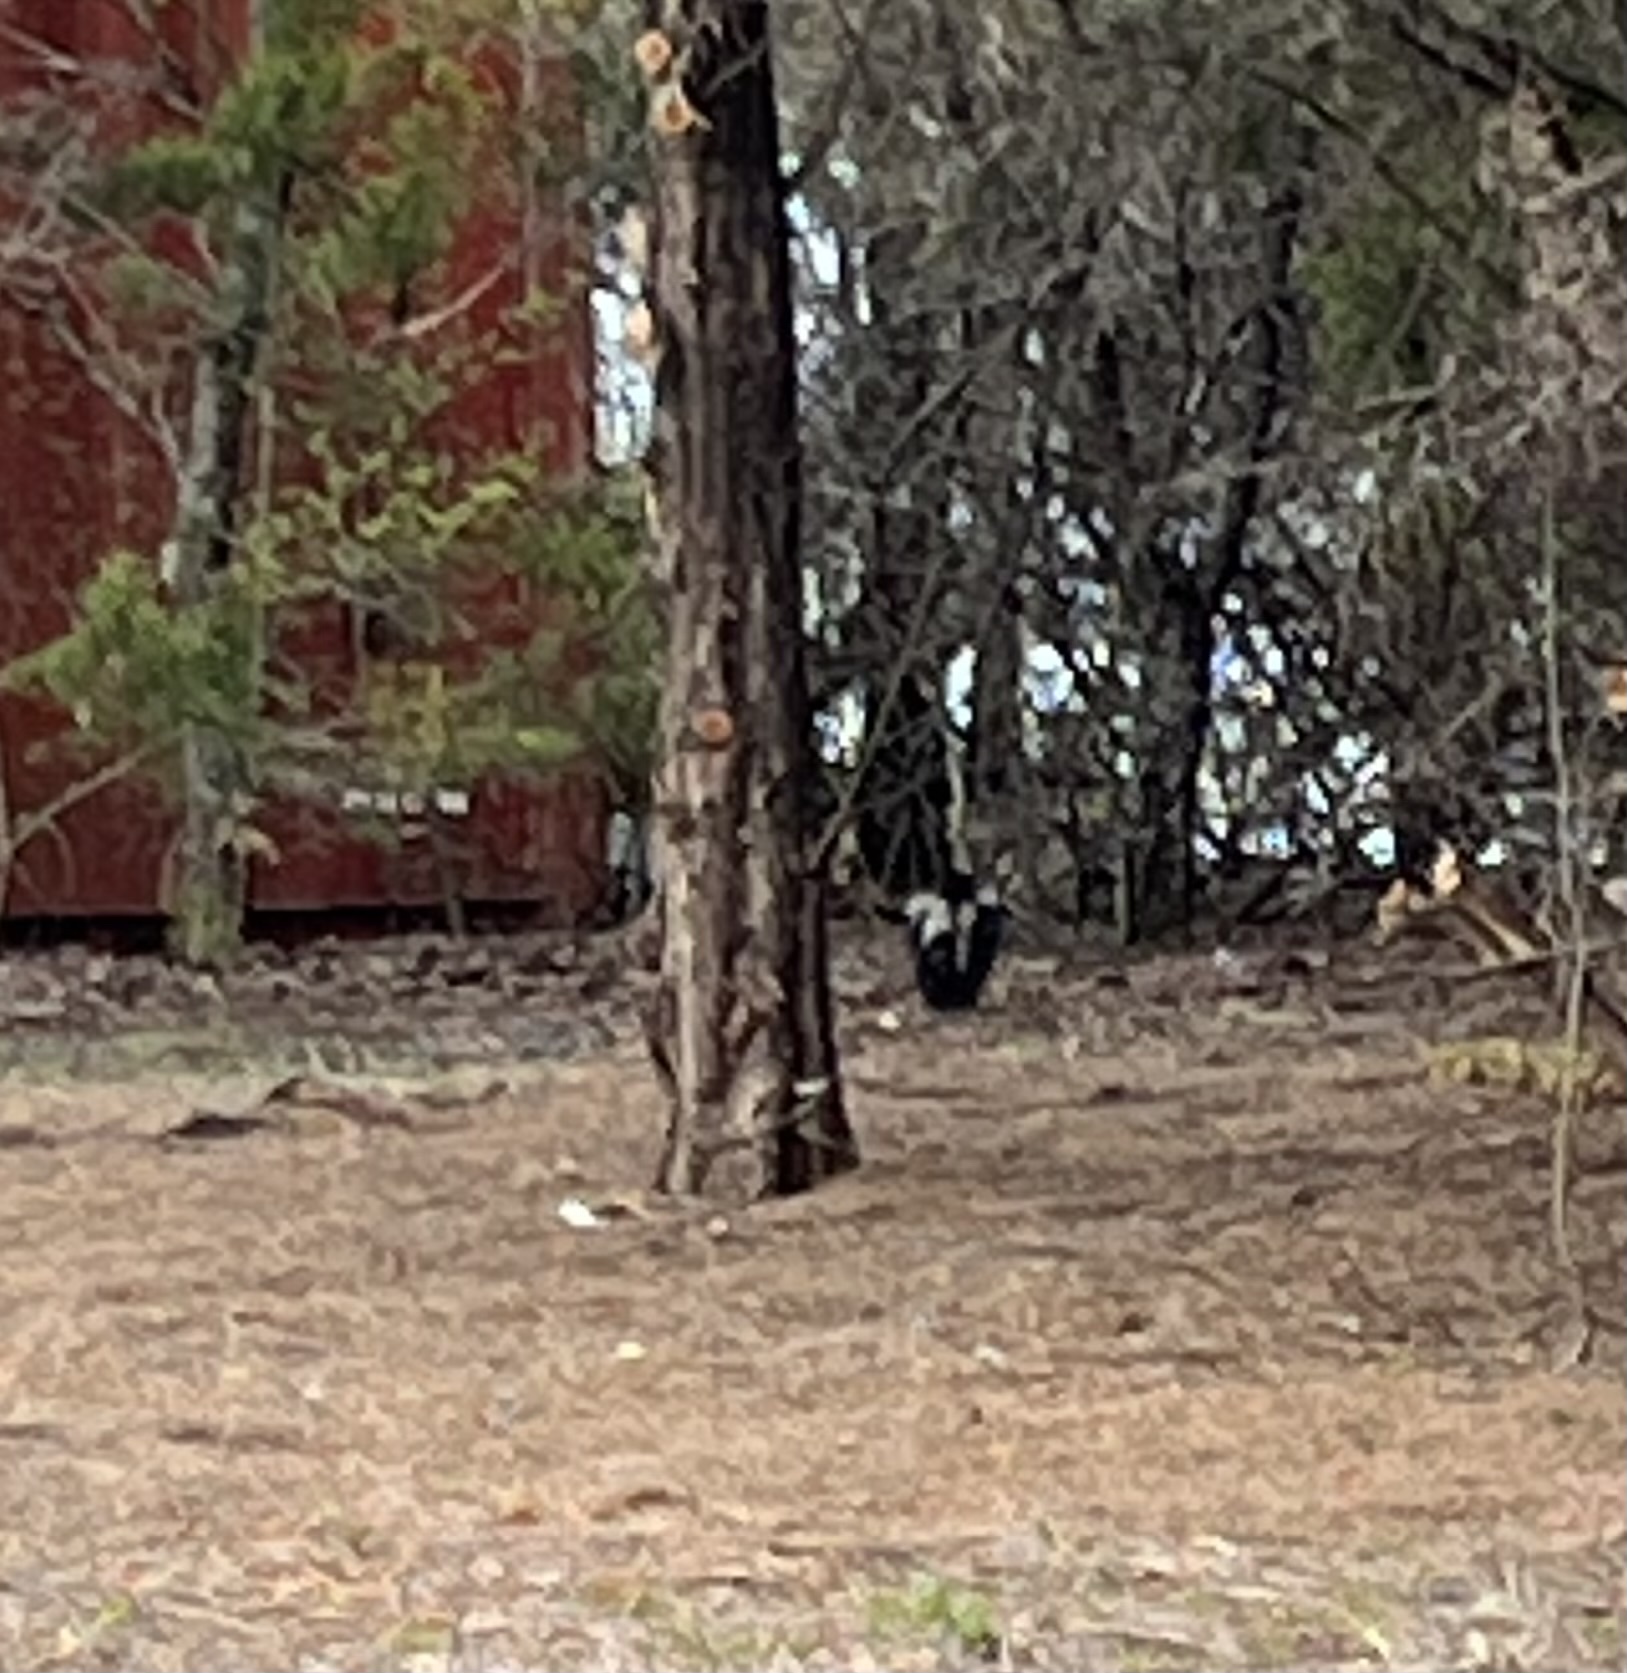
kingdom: Animalia
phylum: Chordata
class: Mammalia
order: Carnivora
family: Mephitidae
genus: Mephitis
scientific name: Mephitis mephitis
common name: Striped skunk
